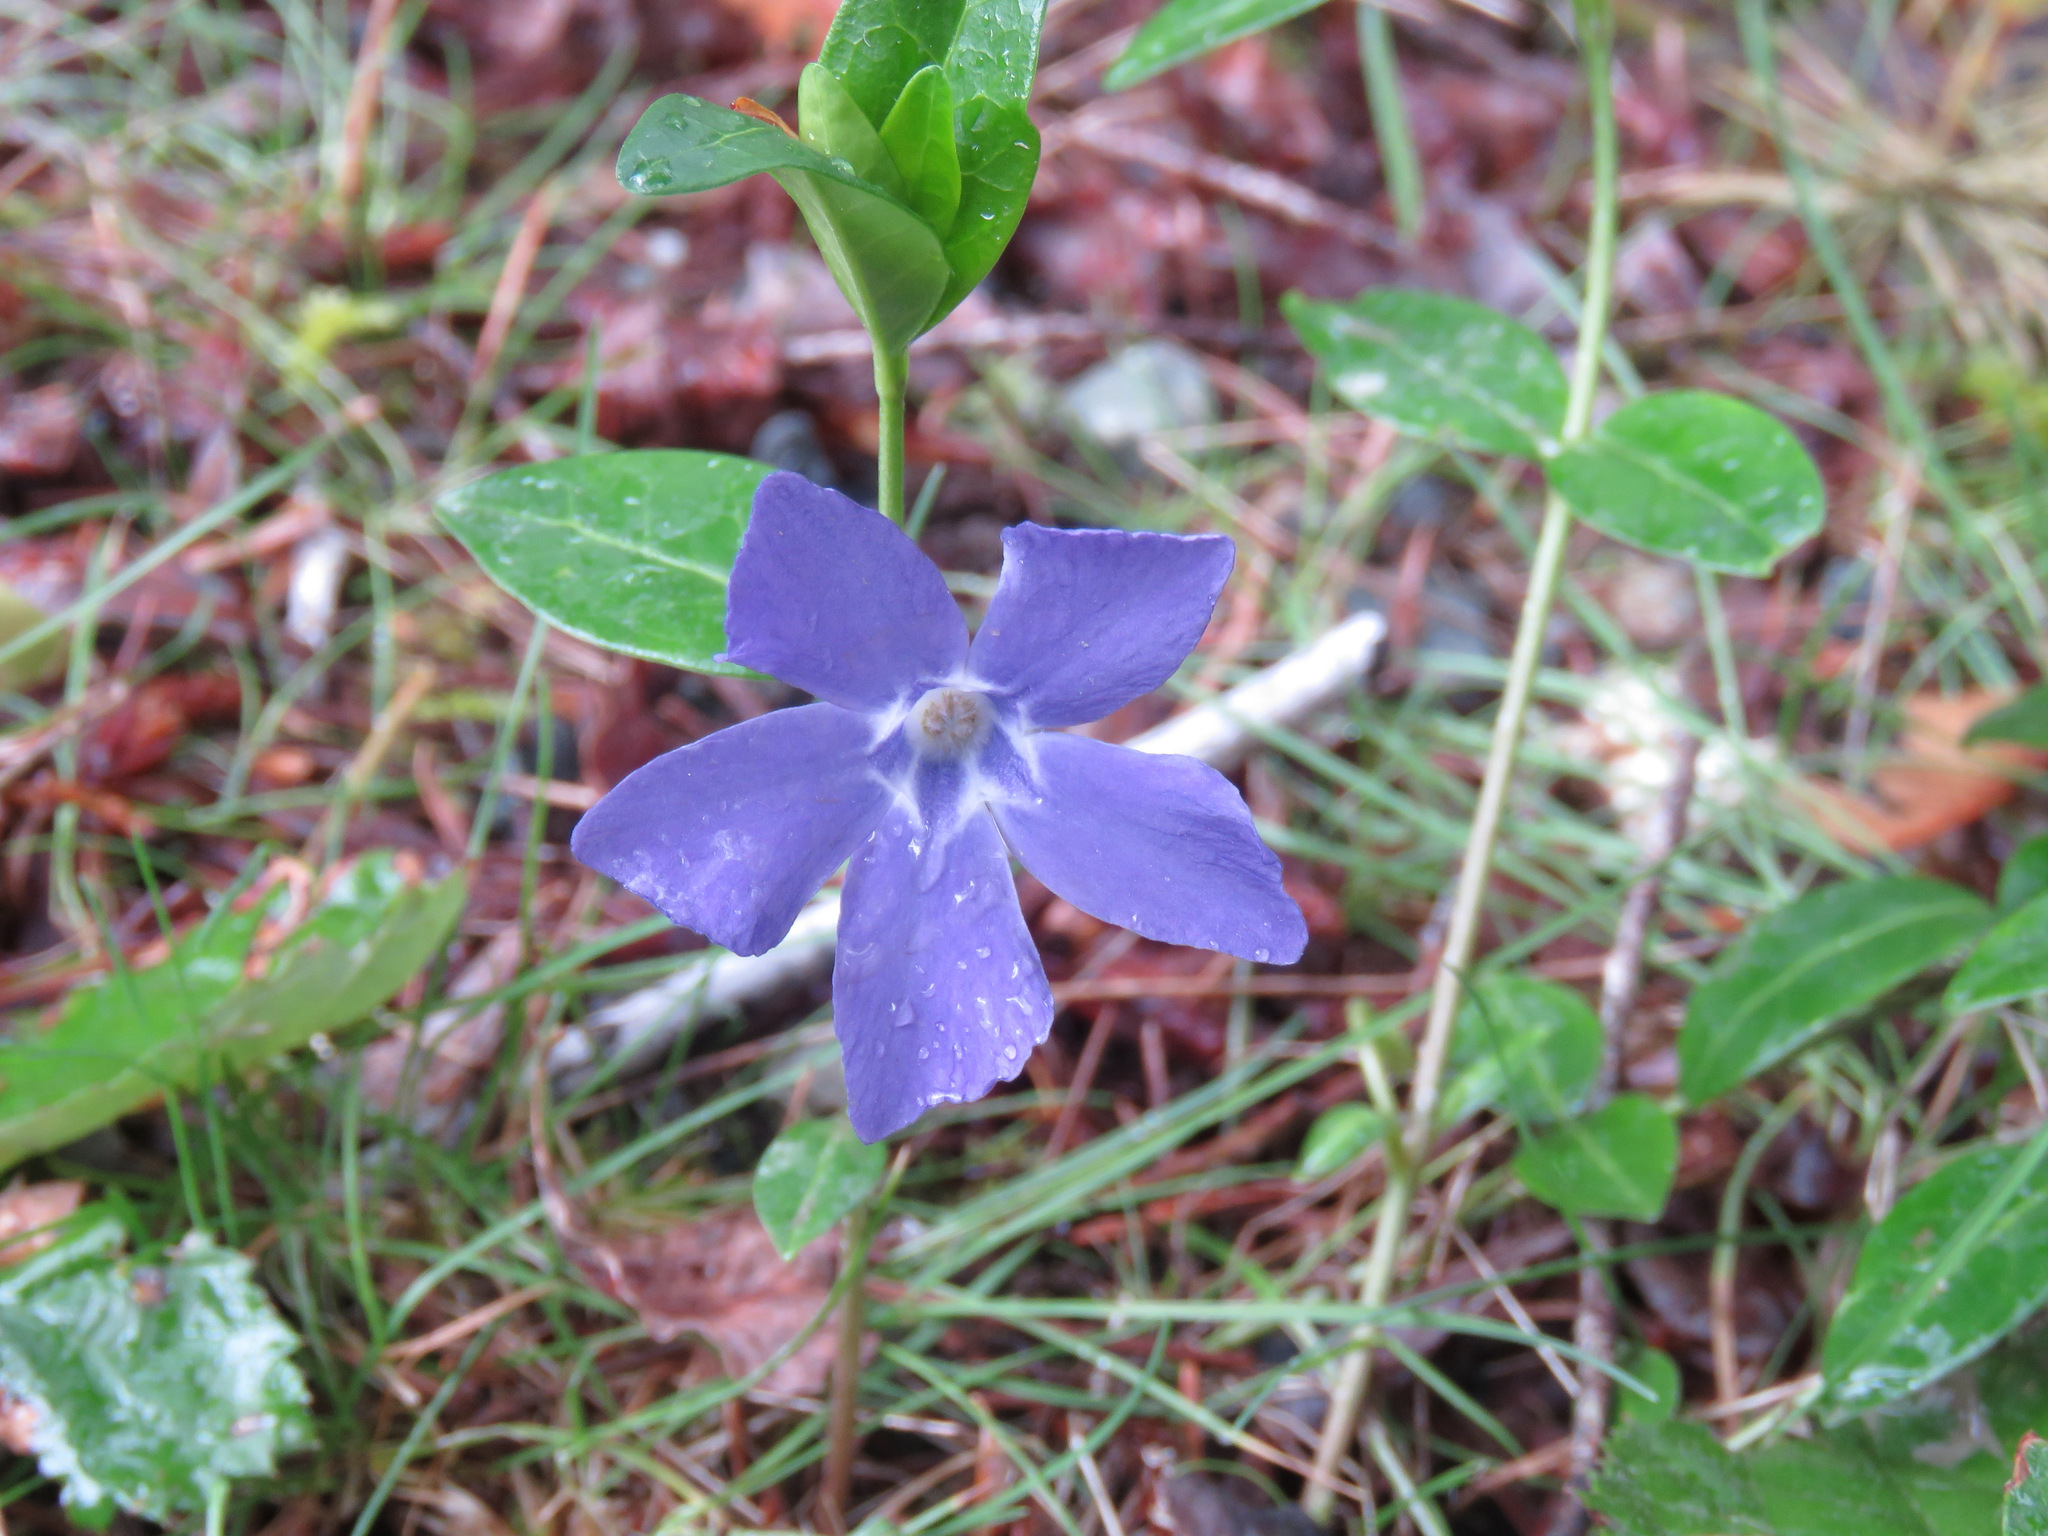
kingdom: Plantae
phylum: Tracheophyta
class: Magnoliopsida
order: Gentianales
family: Apocynaceae
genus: Vinca
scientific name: Vinca minor
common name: Lesser periwinkle
